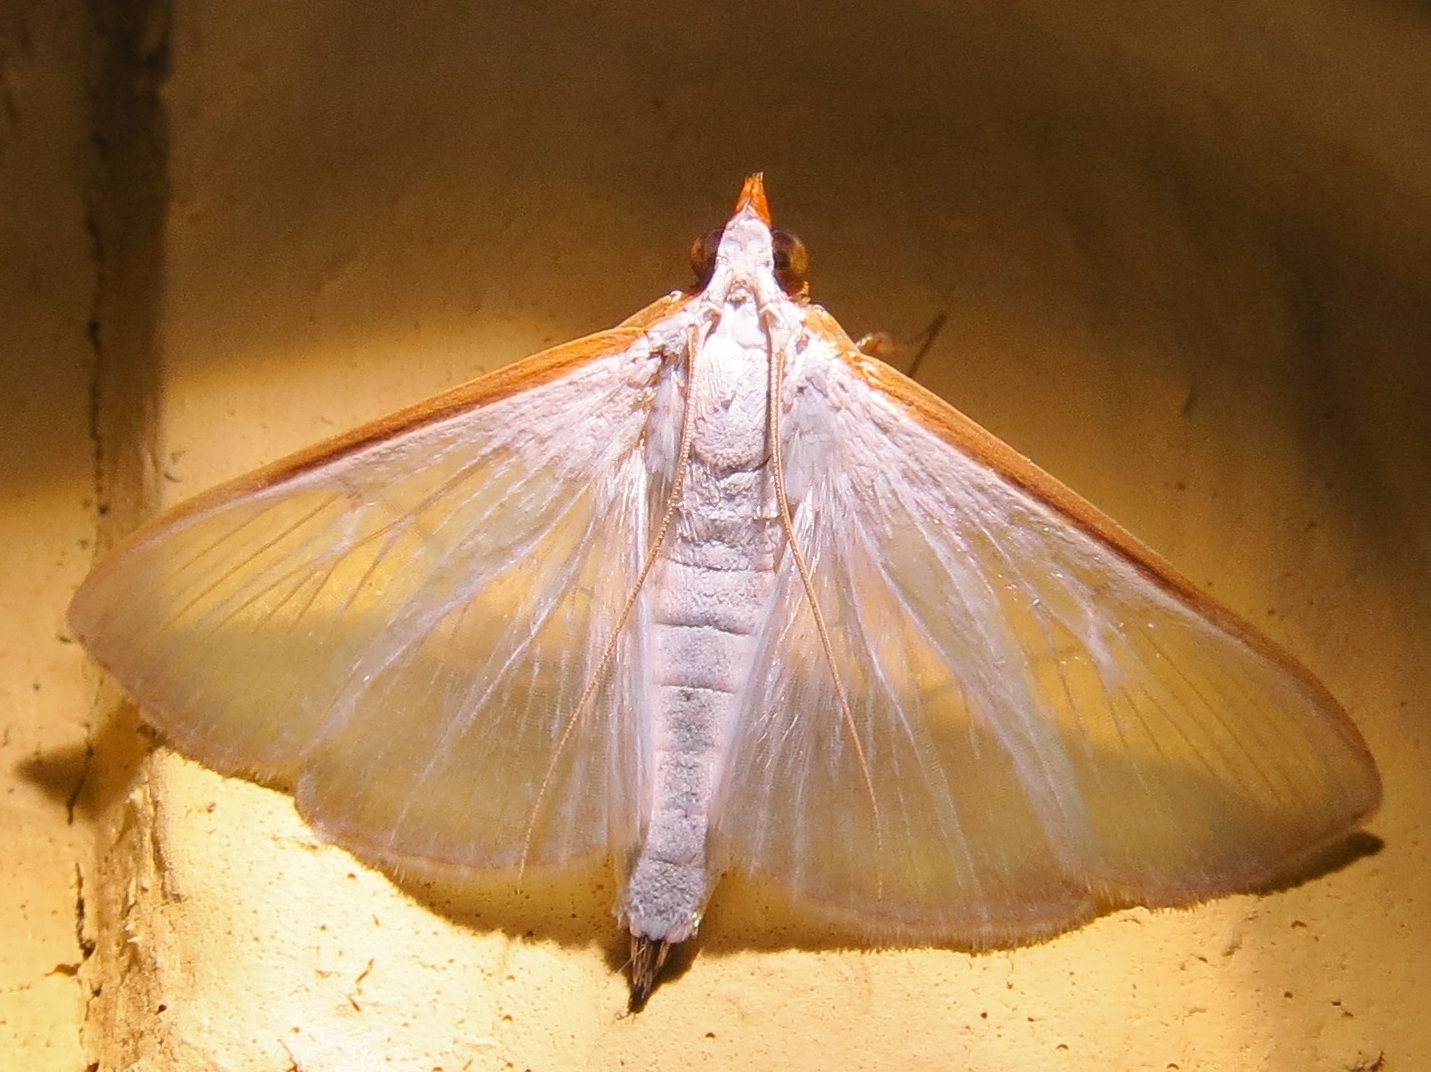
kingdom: Animalia
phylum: Arthropoda
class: Insecta
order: Lepidoptera
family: Crambidae
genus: Diaphania
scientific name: Diaphania costata
